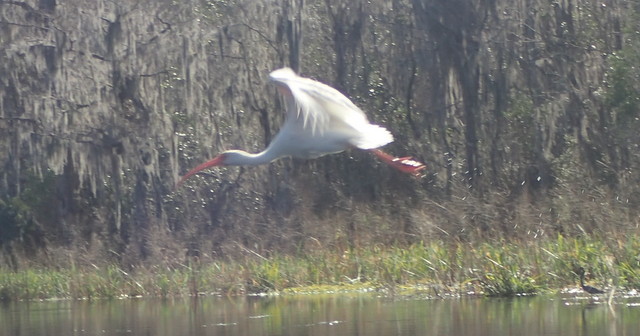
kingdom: Animalia
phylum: Chordata
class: Aves
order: Pelecaniformes
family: Threskiornithidae
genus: Eudocimus
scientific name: Eudocimus albus
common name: White ibis
